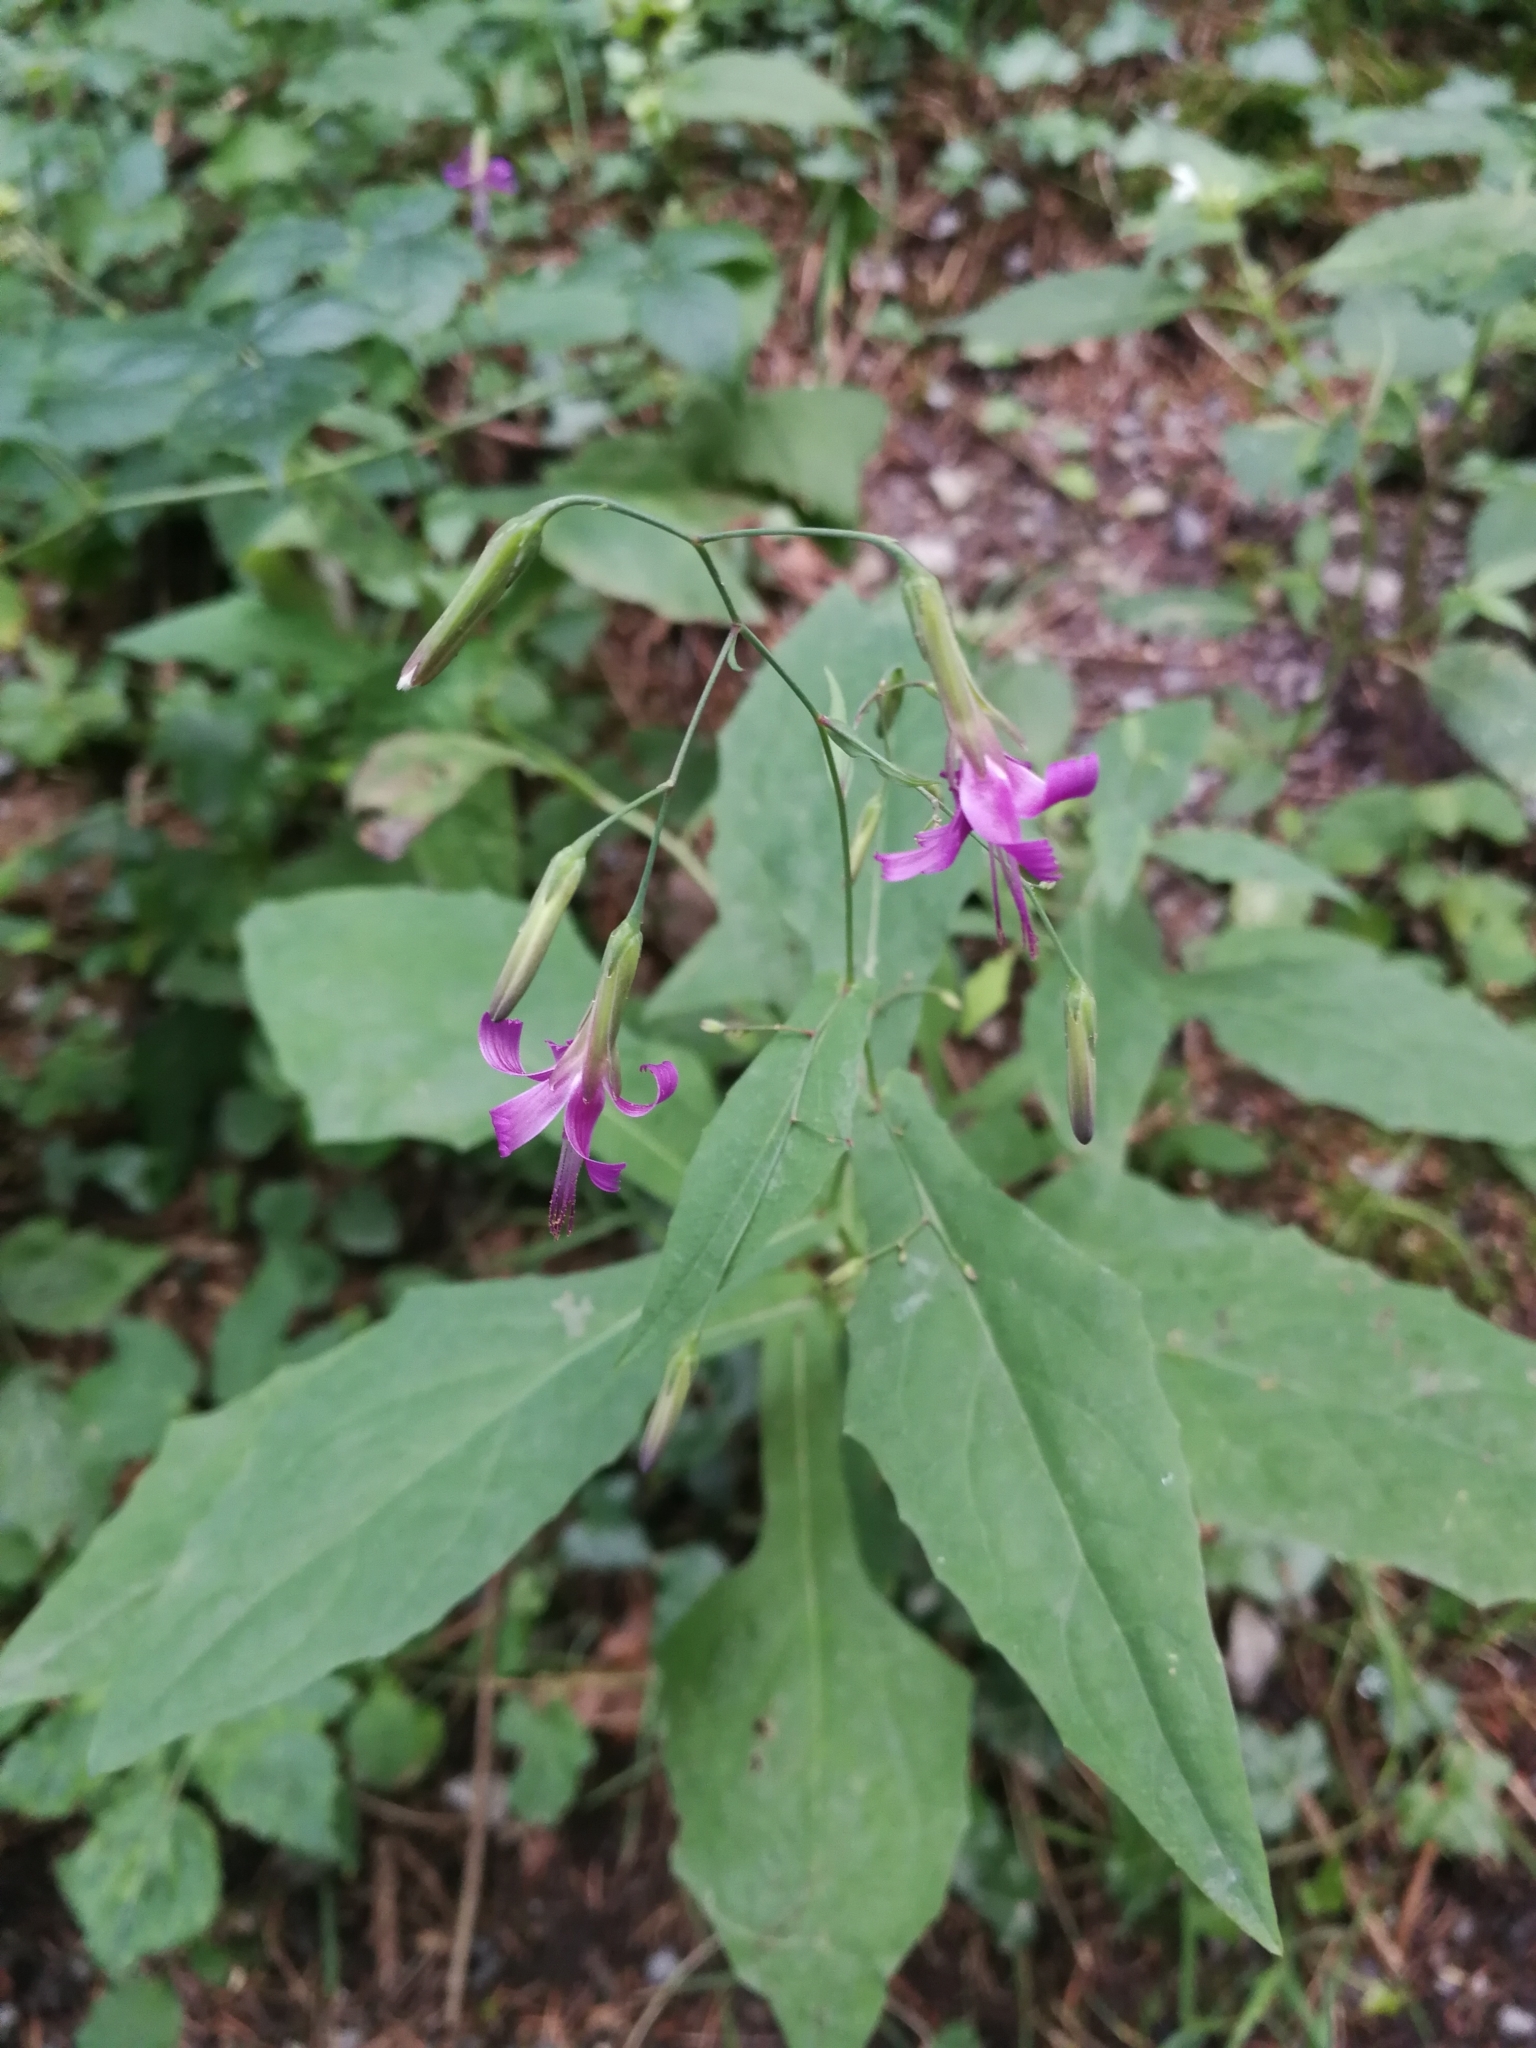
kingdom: Plantae
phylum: Tracheophyta
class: Magnoliopsida
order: Asterales
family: Asteraceae
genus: Prenanthes
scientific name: Prenanthes purpurea
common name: Purple lettuce
